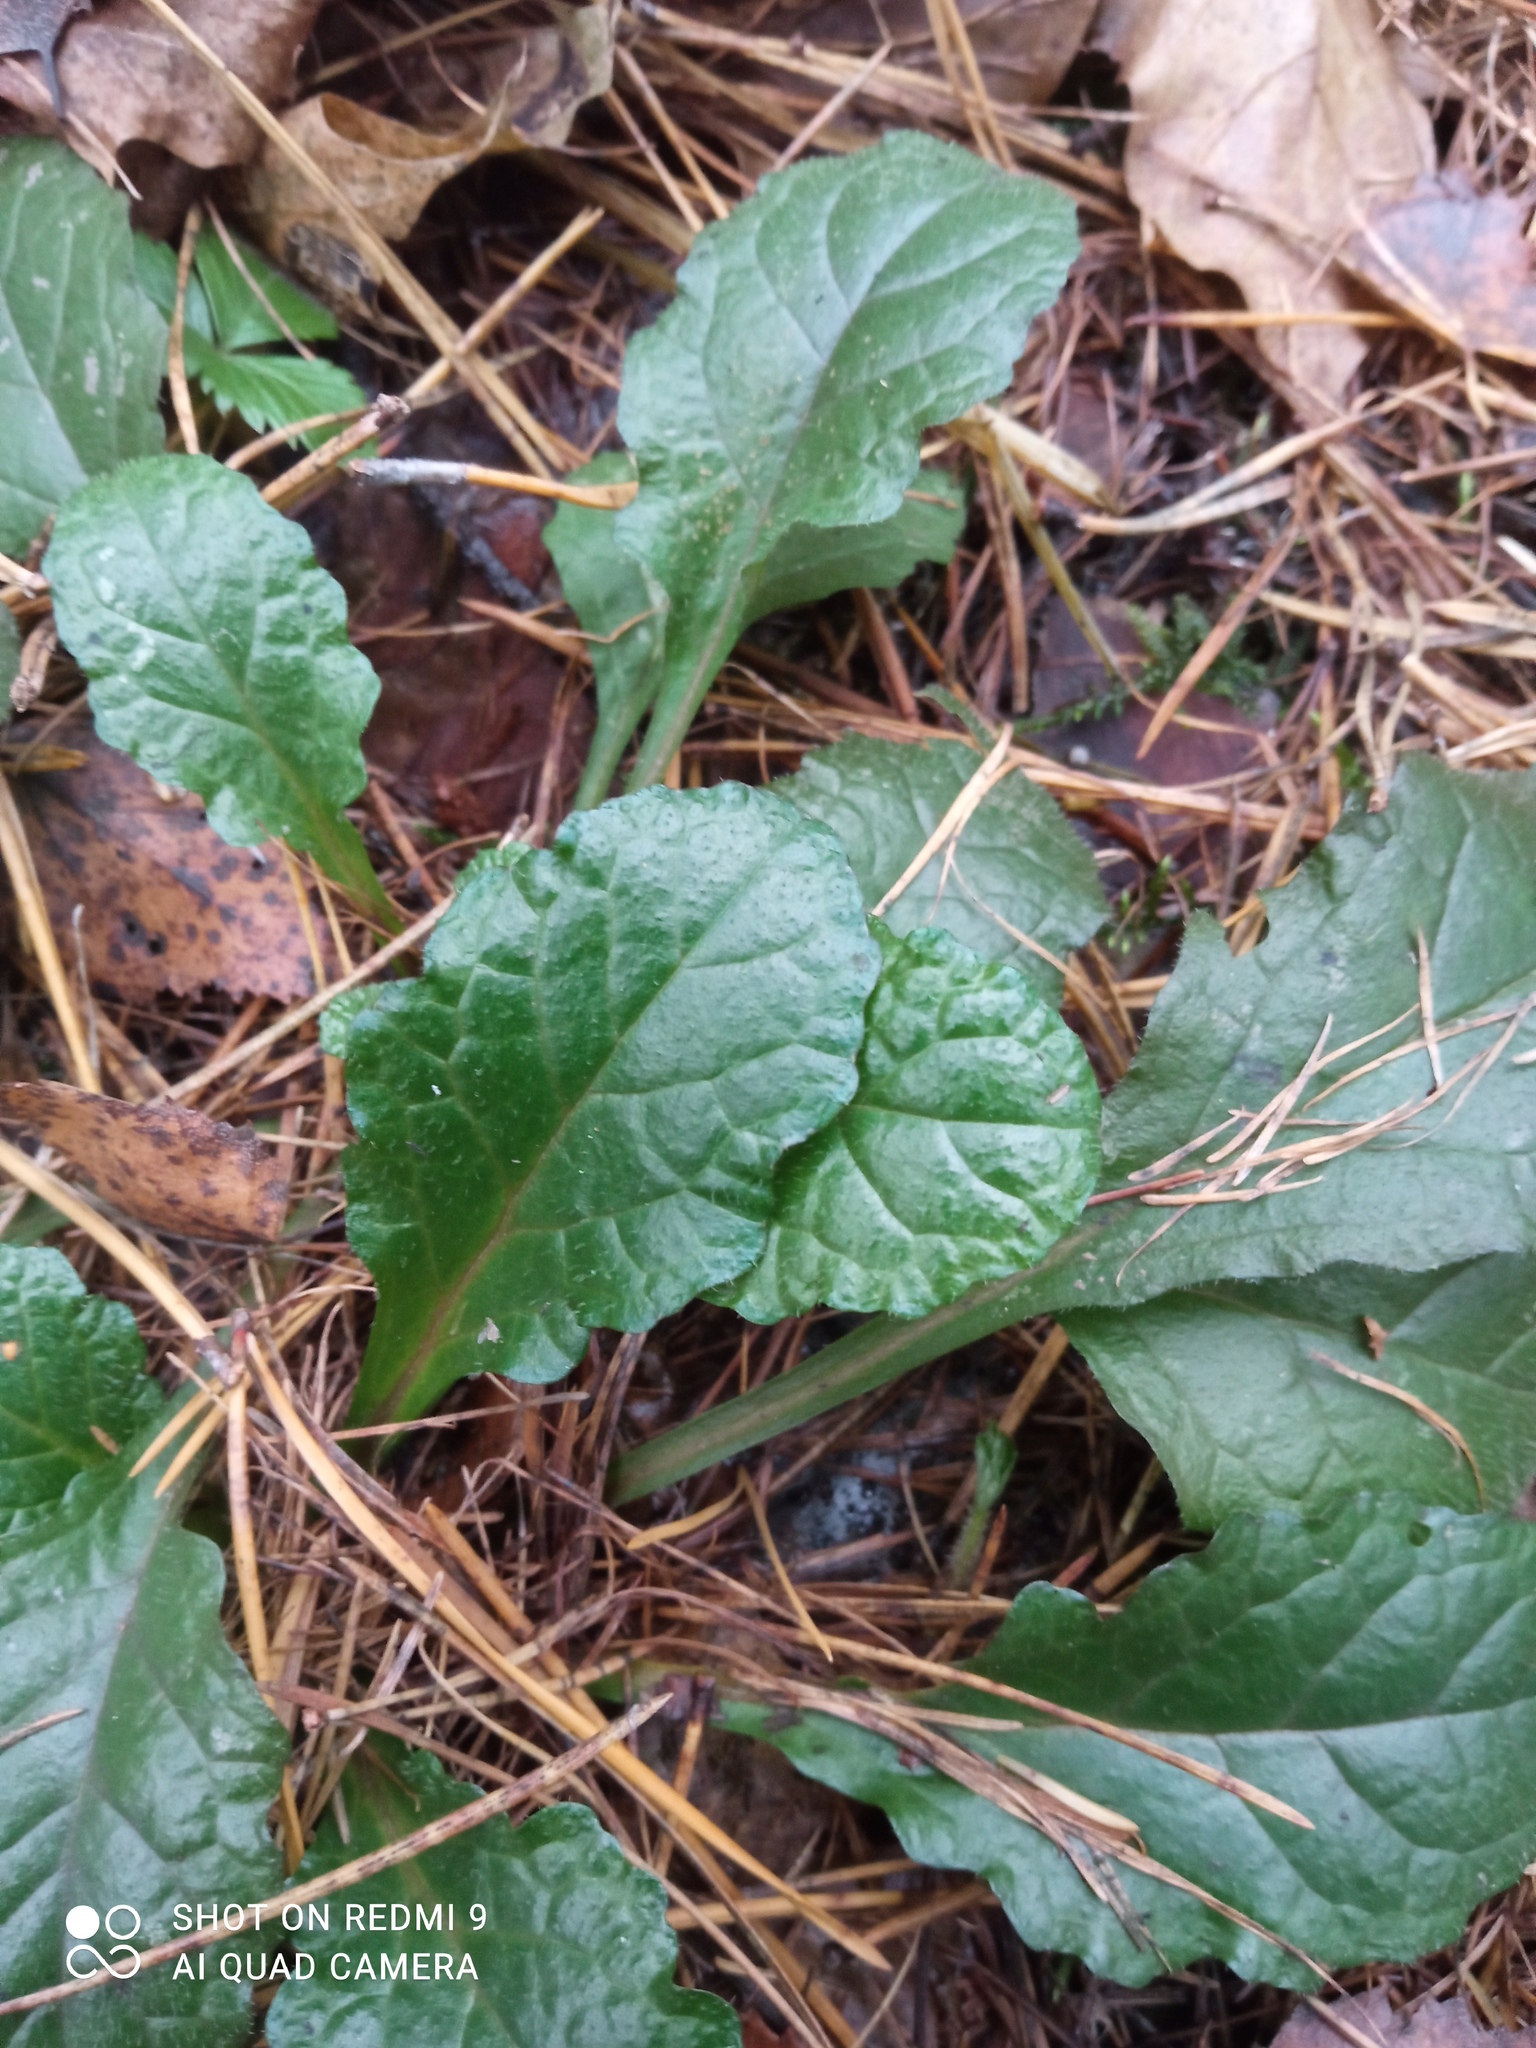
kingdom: Plantae
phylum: Tracheophyta
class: Magnoliopsida
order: Lamiales
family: Lamiaceae
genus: Ajuga
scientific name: Ajuga reptans
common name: Bugle
